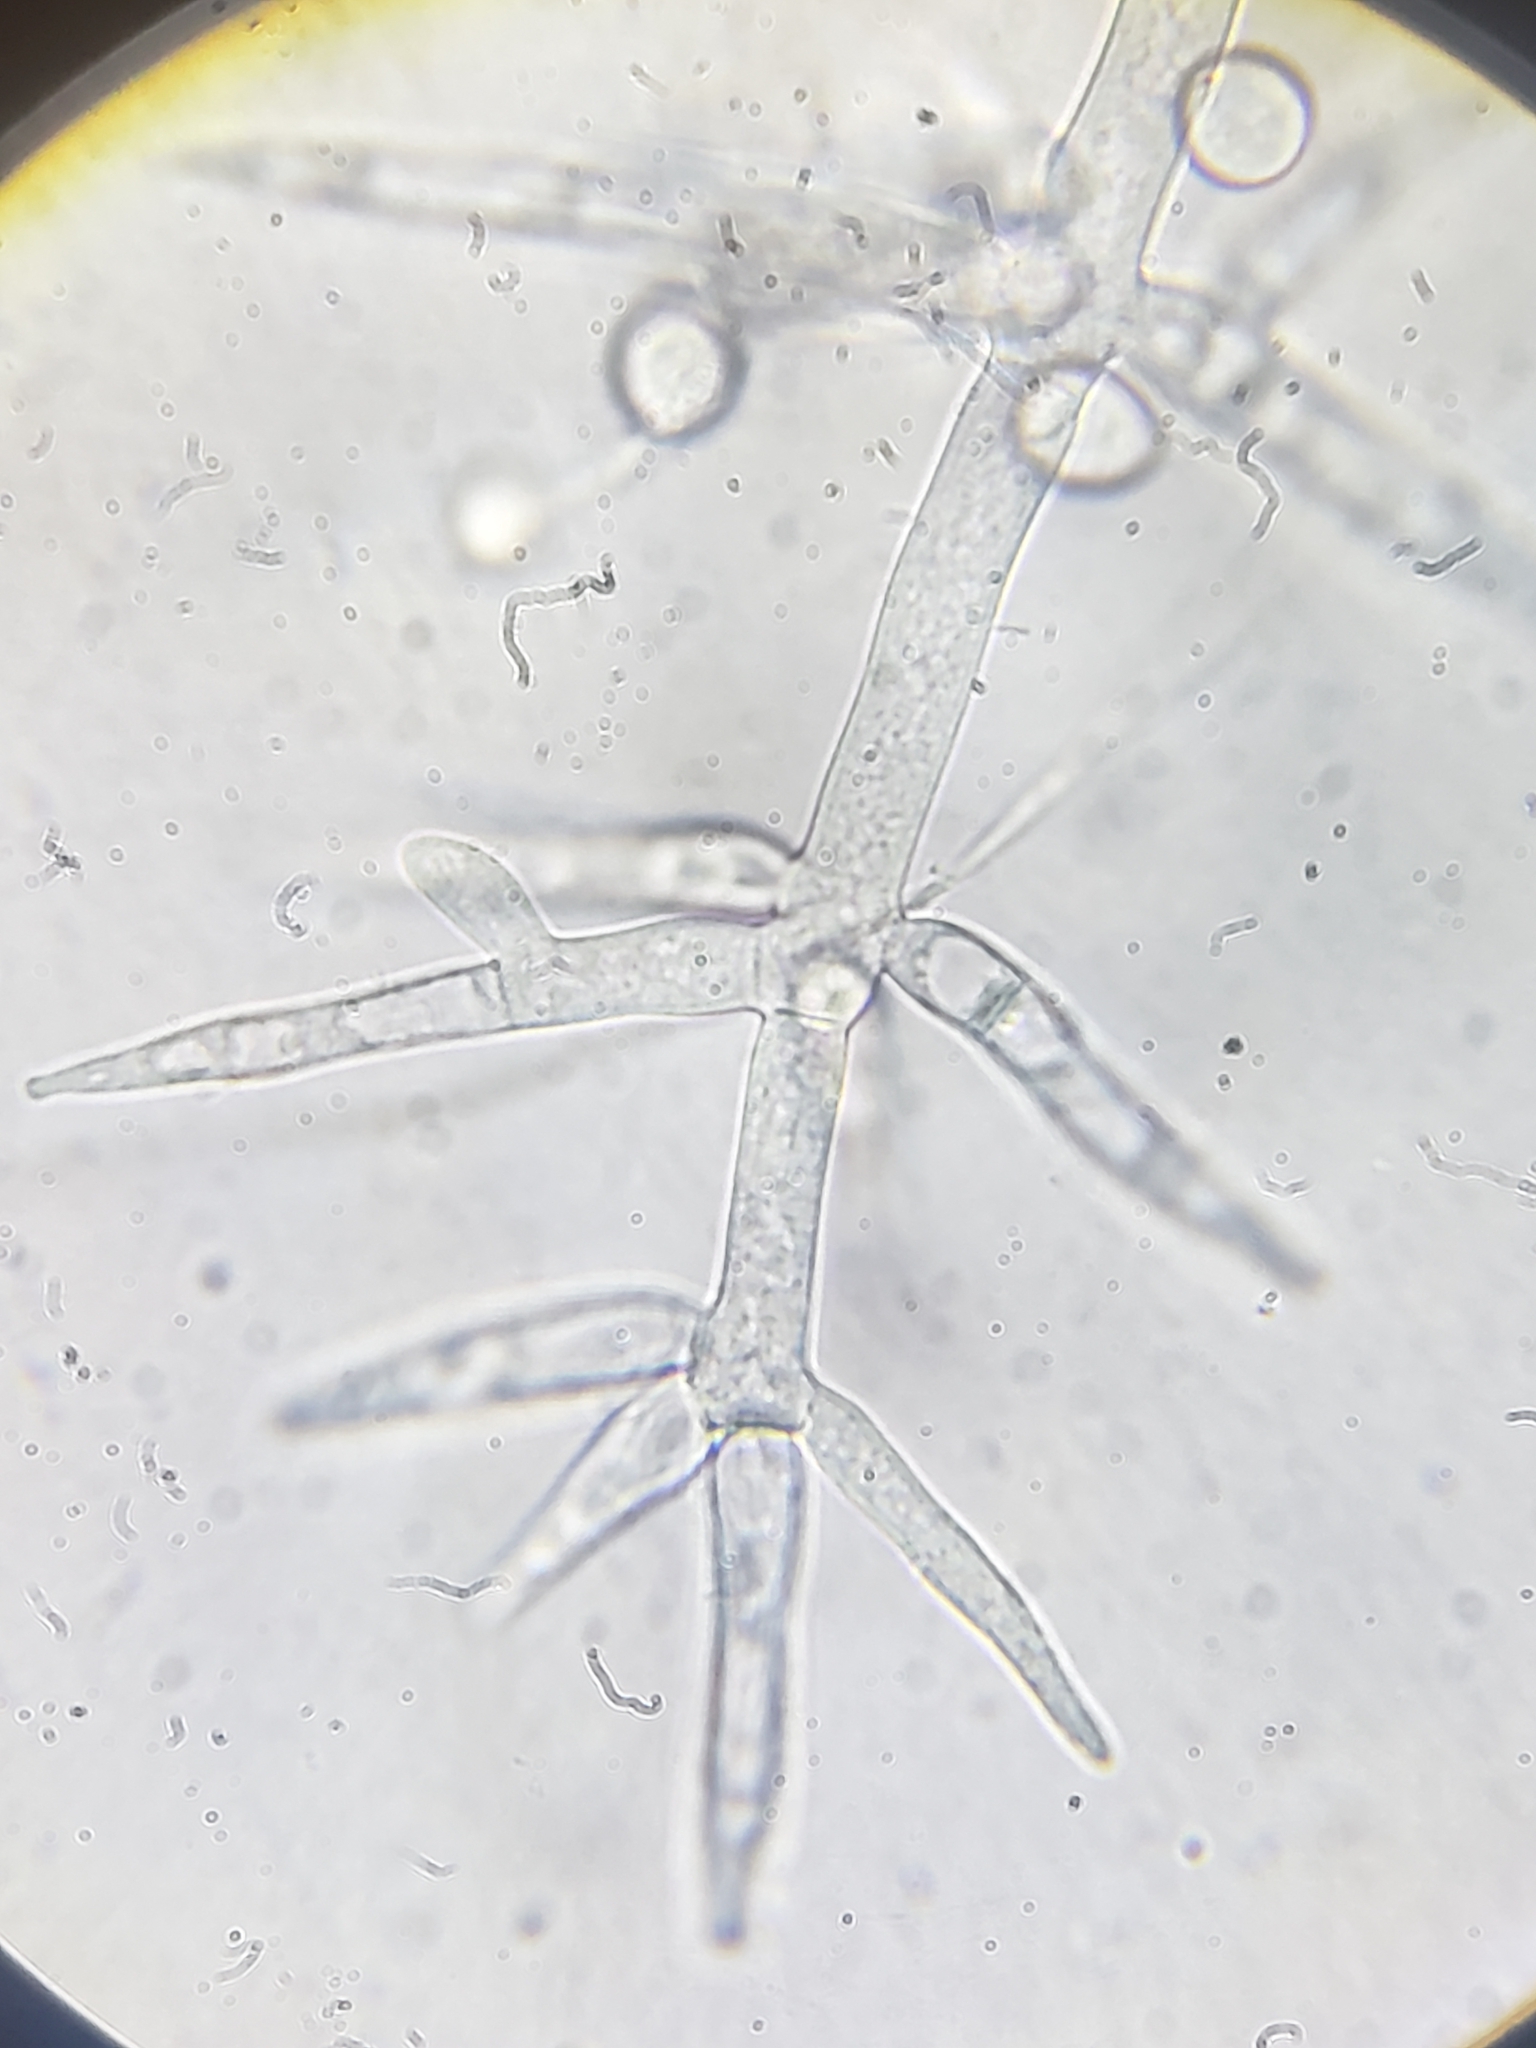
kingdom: Fungi
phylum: Ascomycota
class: Sordariomycetes
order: Hypocreales
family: Hypocreaceae
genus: Hypomyces
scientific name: Hypomyces
